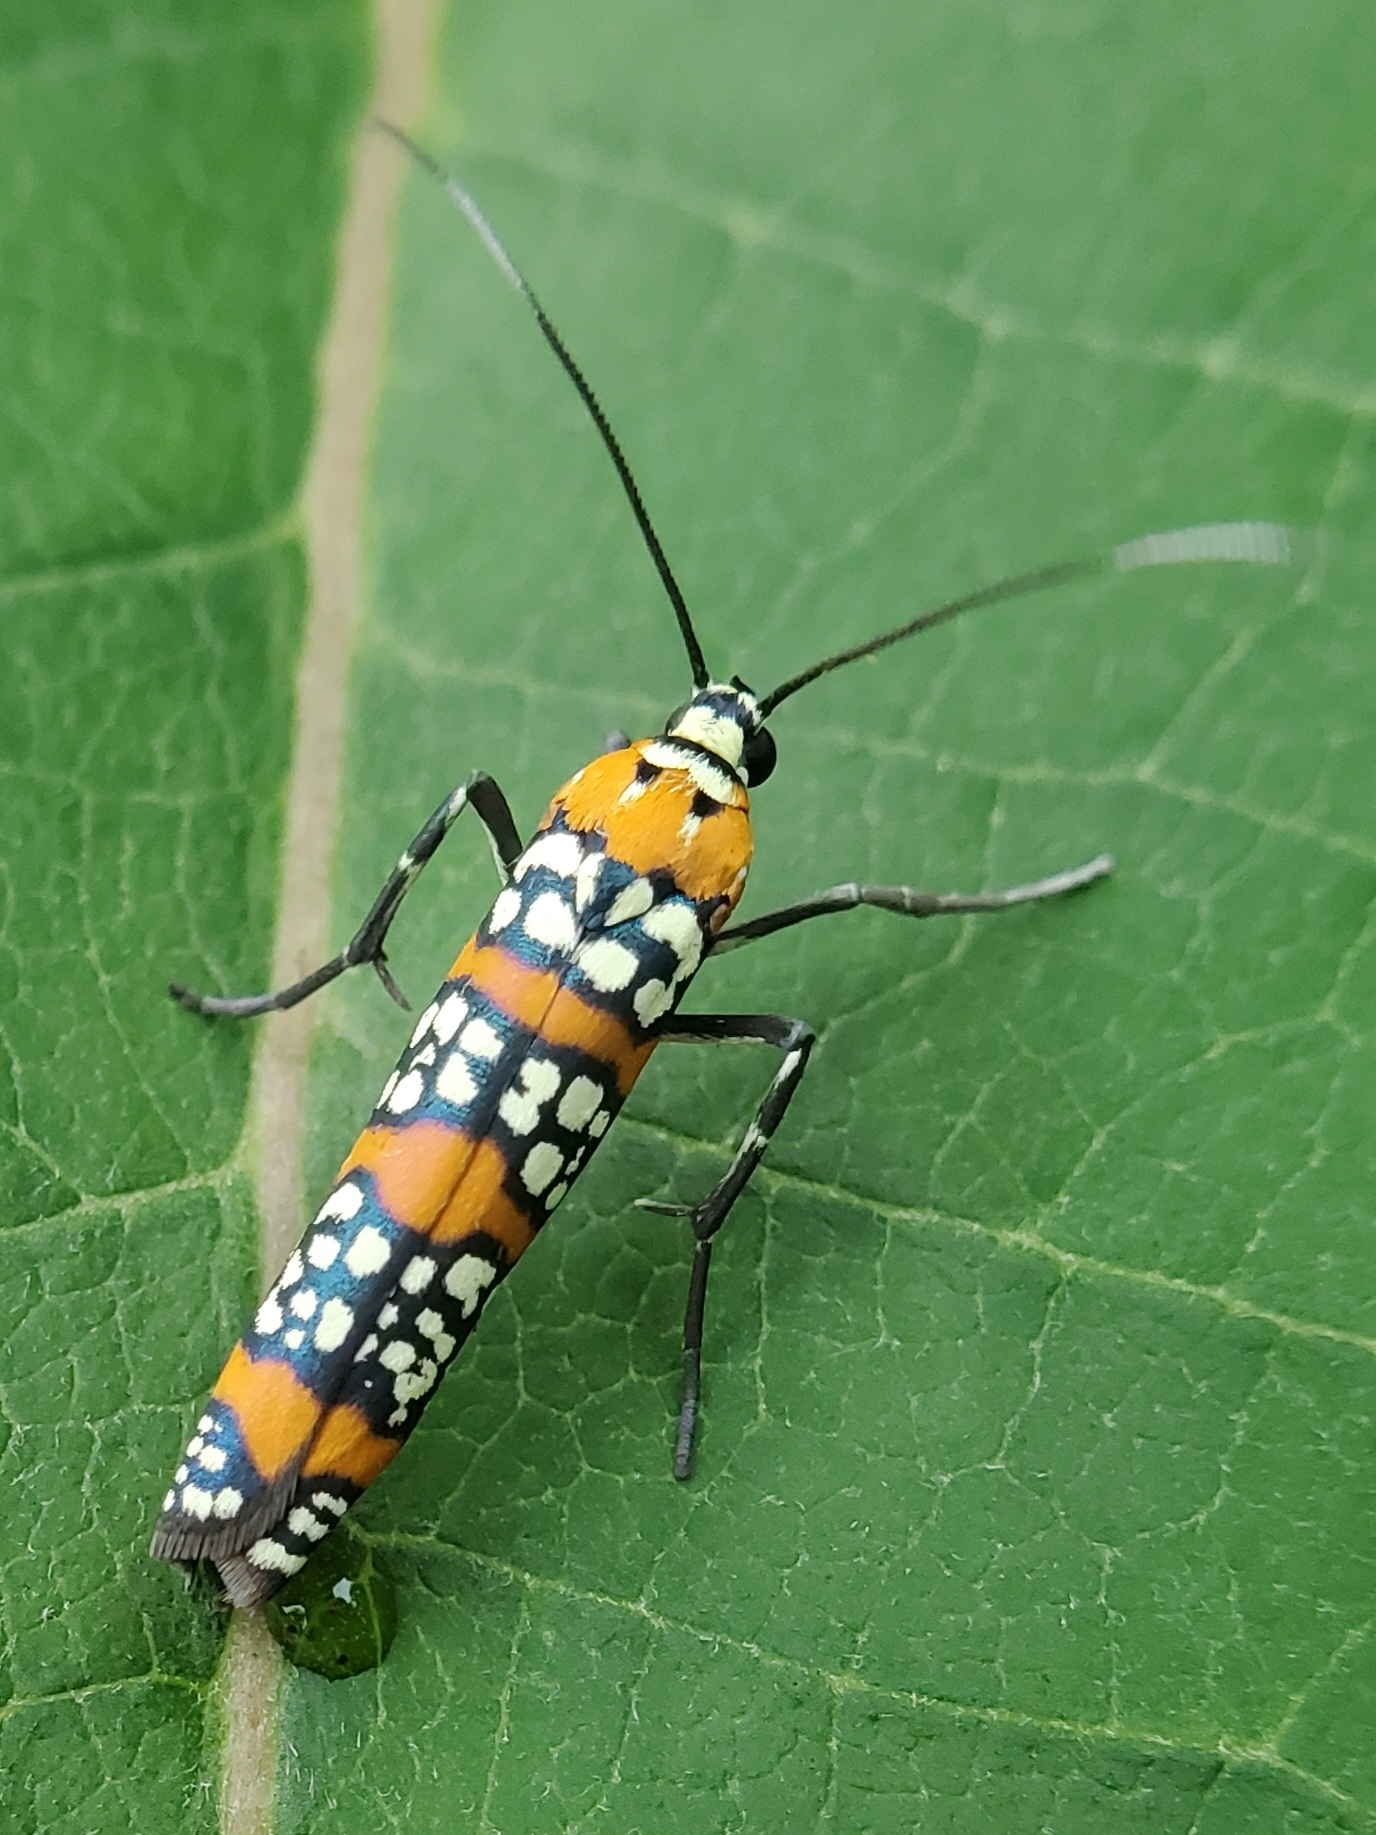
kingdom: Animalia
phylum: Arthropoda
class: Insecta
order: Lepidoptera
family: Attevidae
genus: Atteva
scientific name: Atteva punctella
